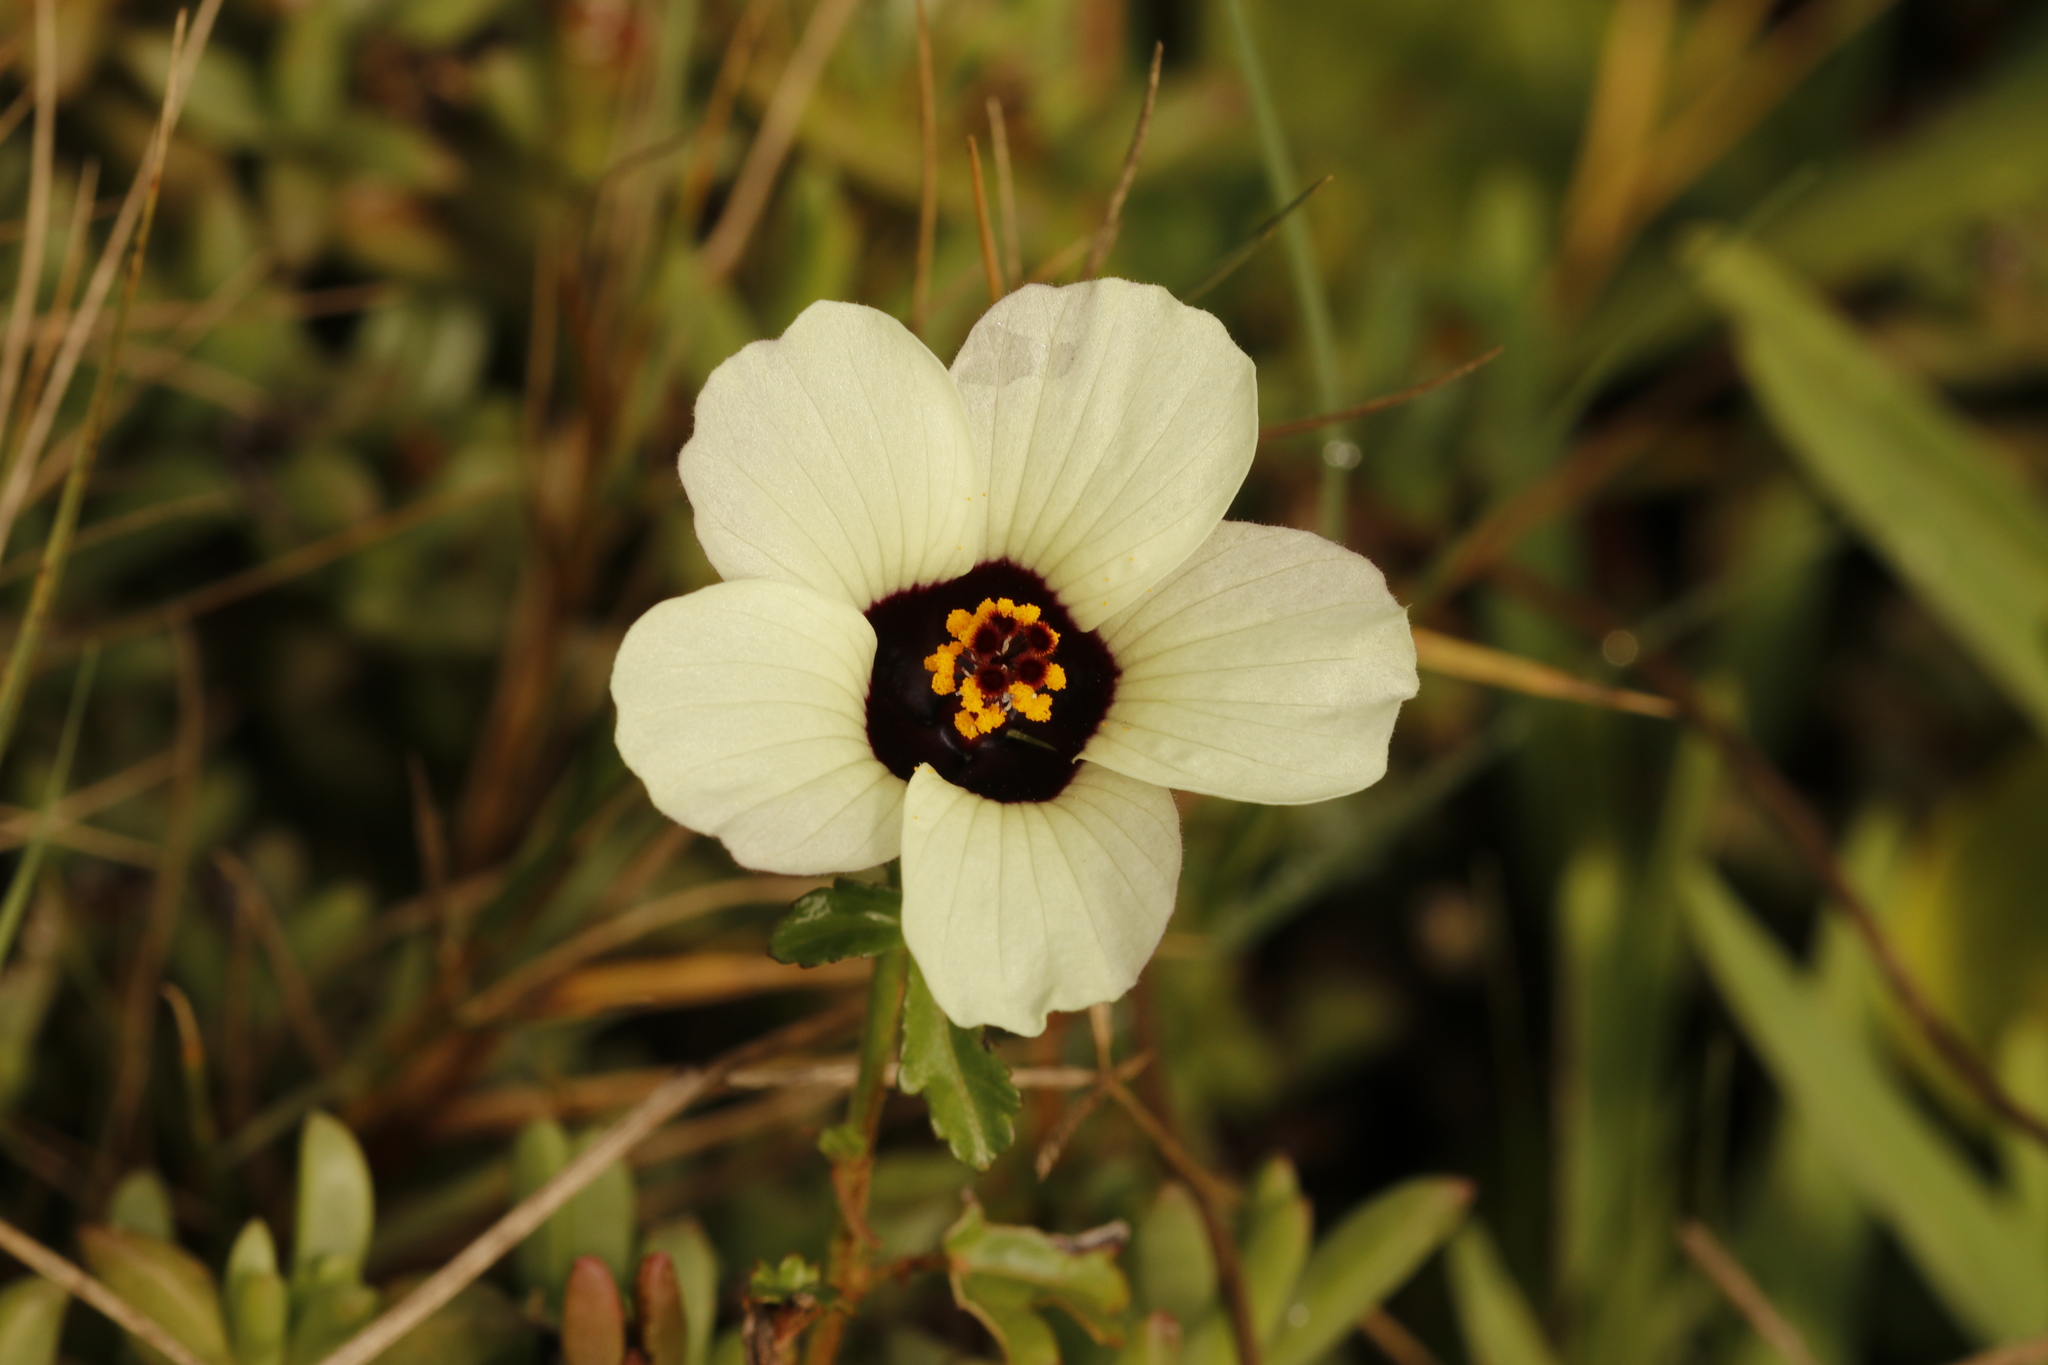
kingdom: Plantae
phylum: Tracheophyta
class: Magnoliopsida
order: Malvales
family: Malvaceae
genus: Hibiscus
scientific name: Hibiscus trionum
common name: Bladder ketmia
